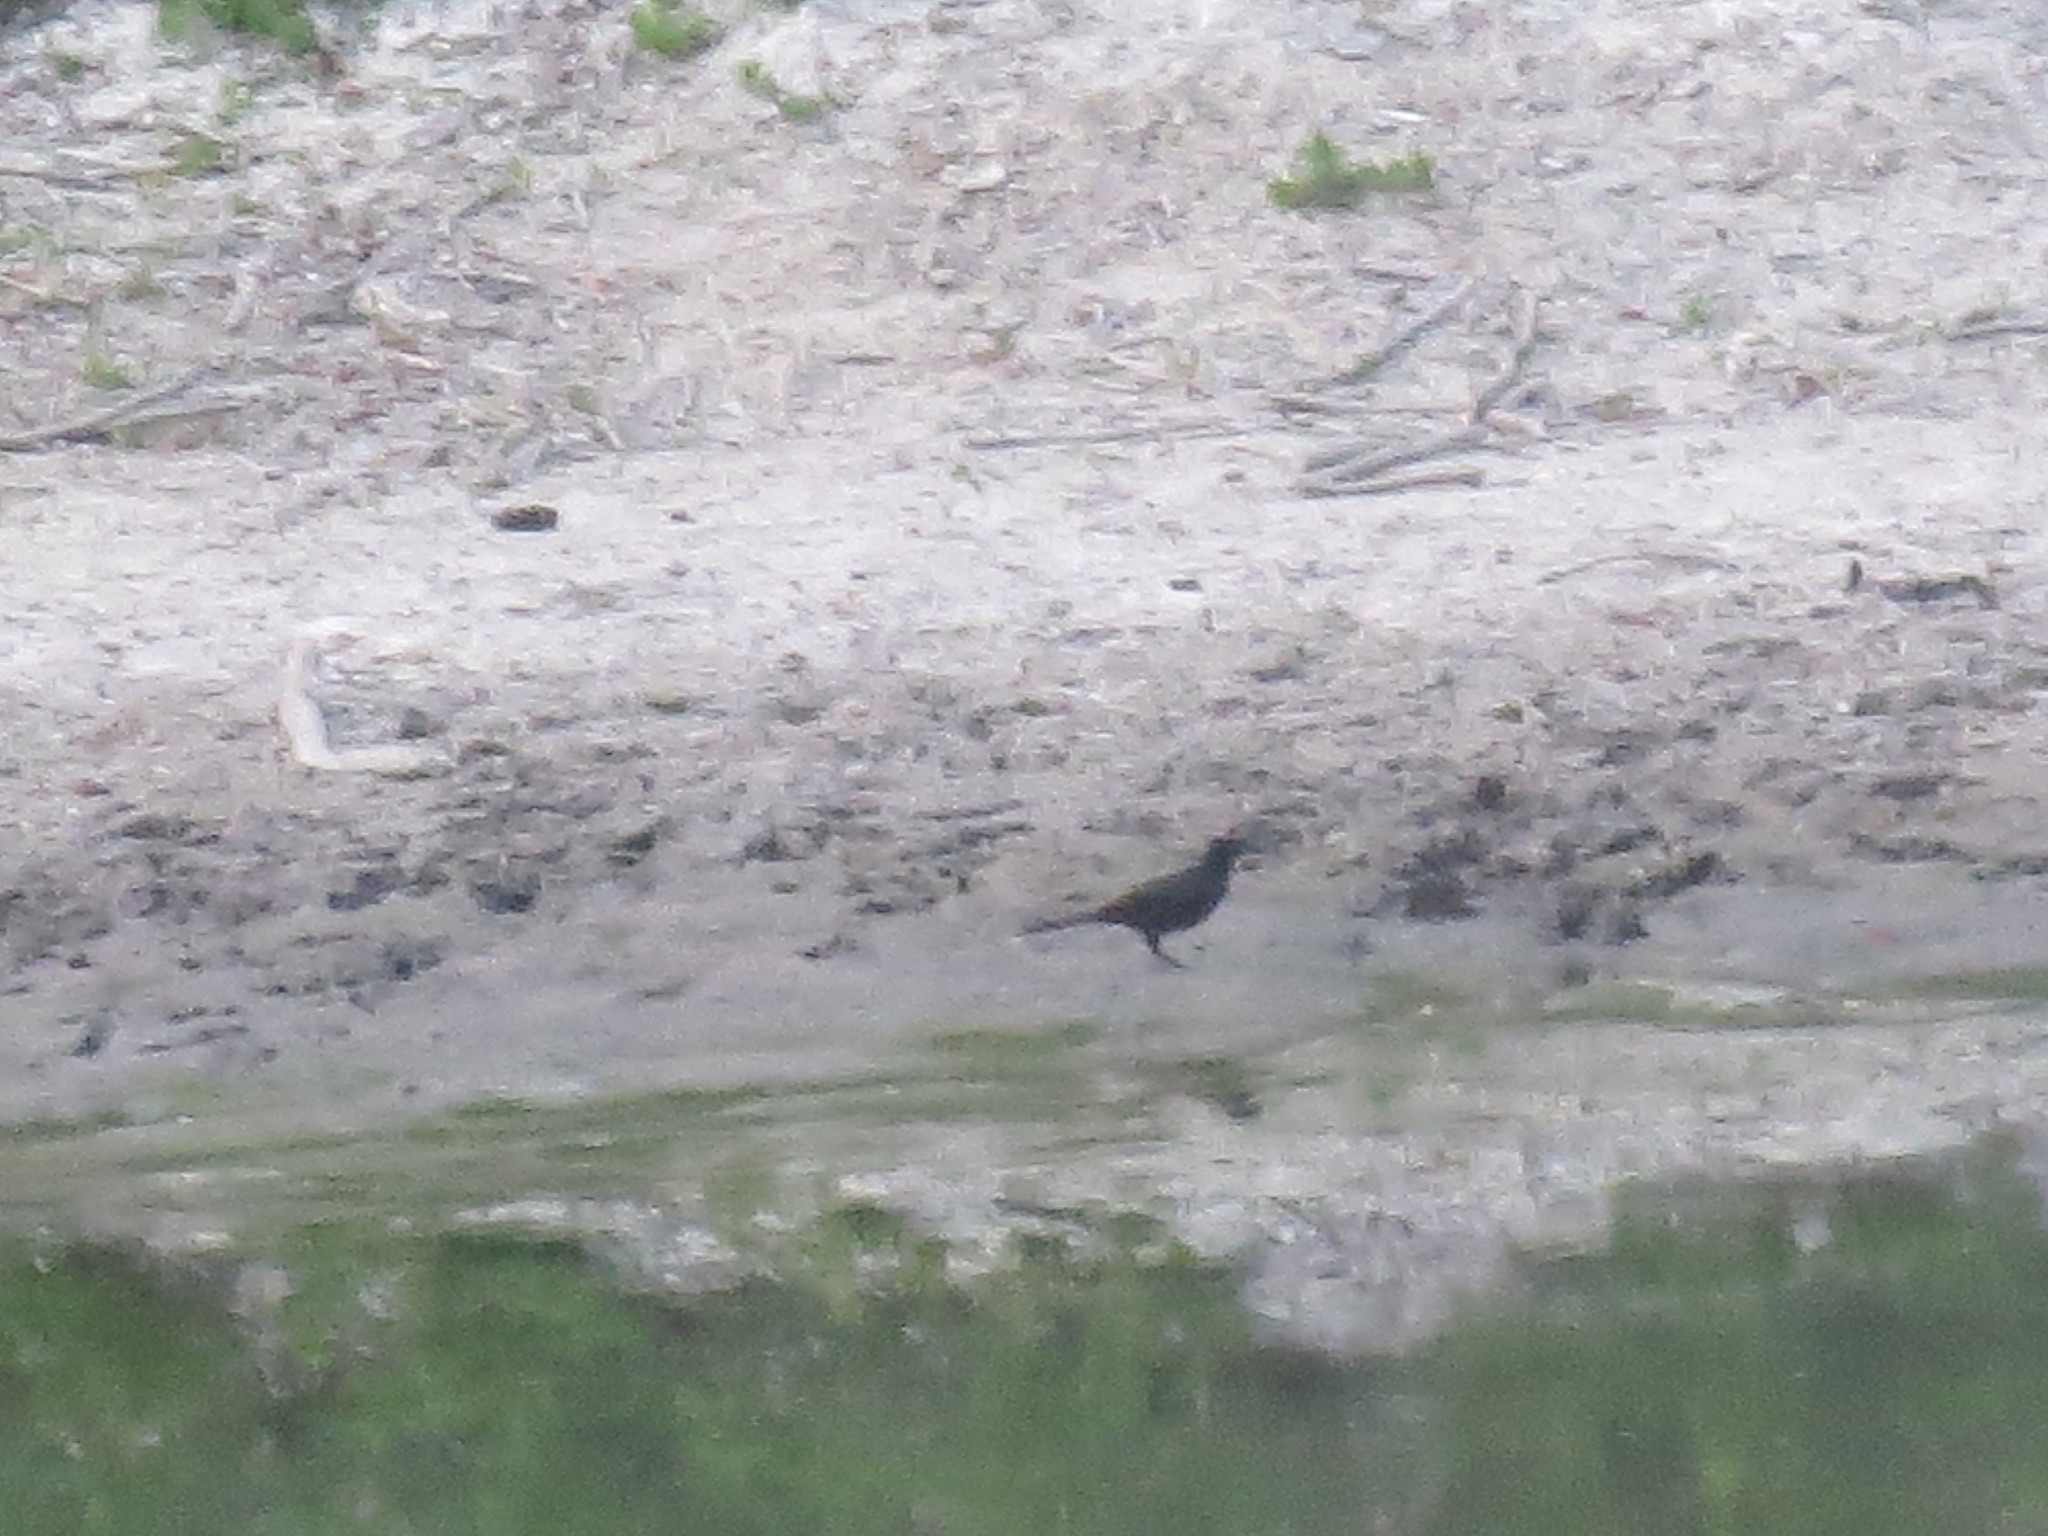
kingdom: Animalia
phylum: Chordata
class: Aves
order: Passeriformes
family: Icteridae
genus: Quiscalus
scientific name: Quiscalus major
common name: Boat-tailed grackle
